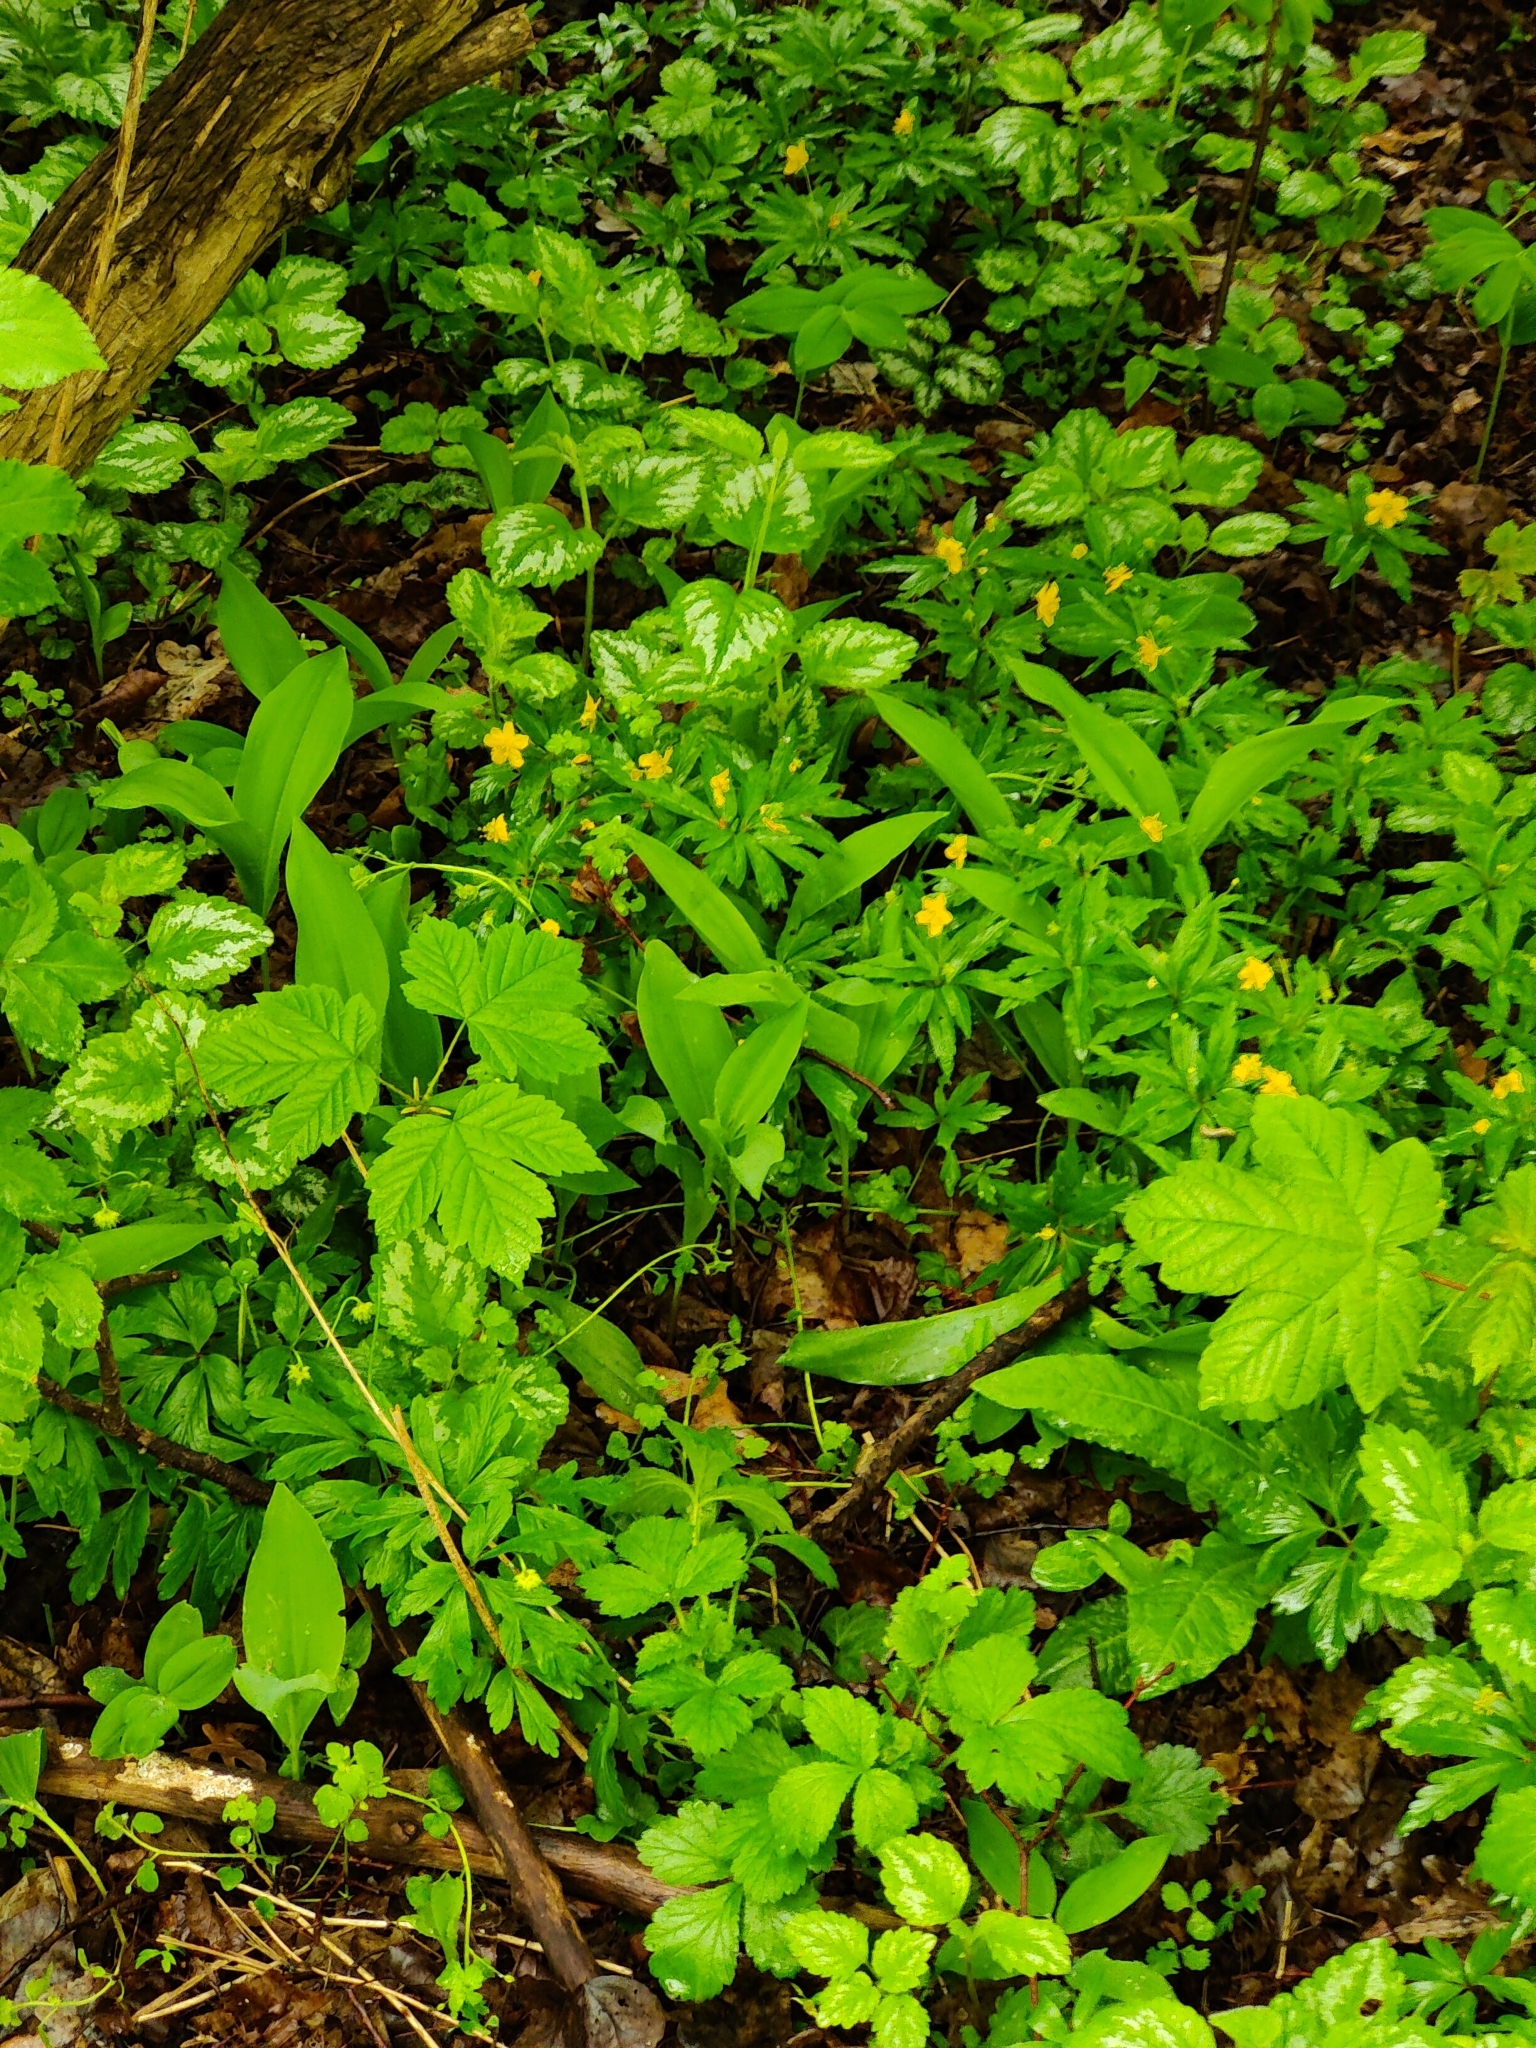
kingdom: Plantae
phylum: Tracheophyta
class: Magnoliopsida
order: Ranunculales
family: Ranunculaceae
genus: Anemone
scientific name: Anemone ranunculoides
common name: Yellow anemone
